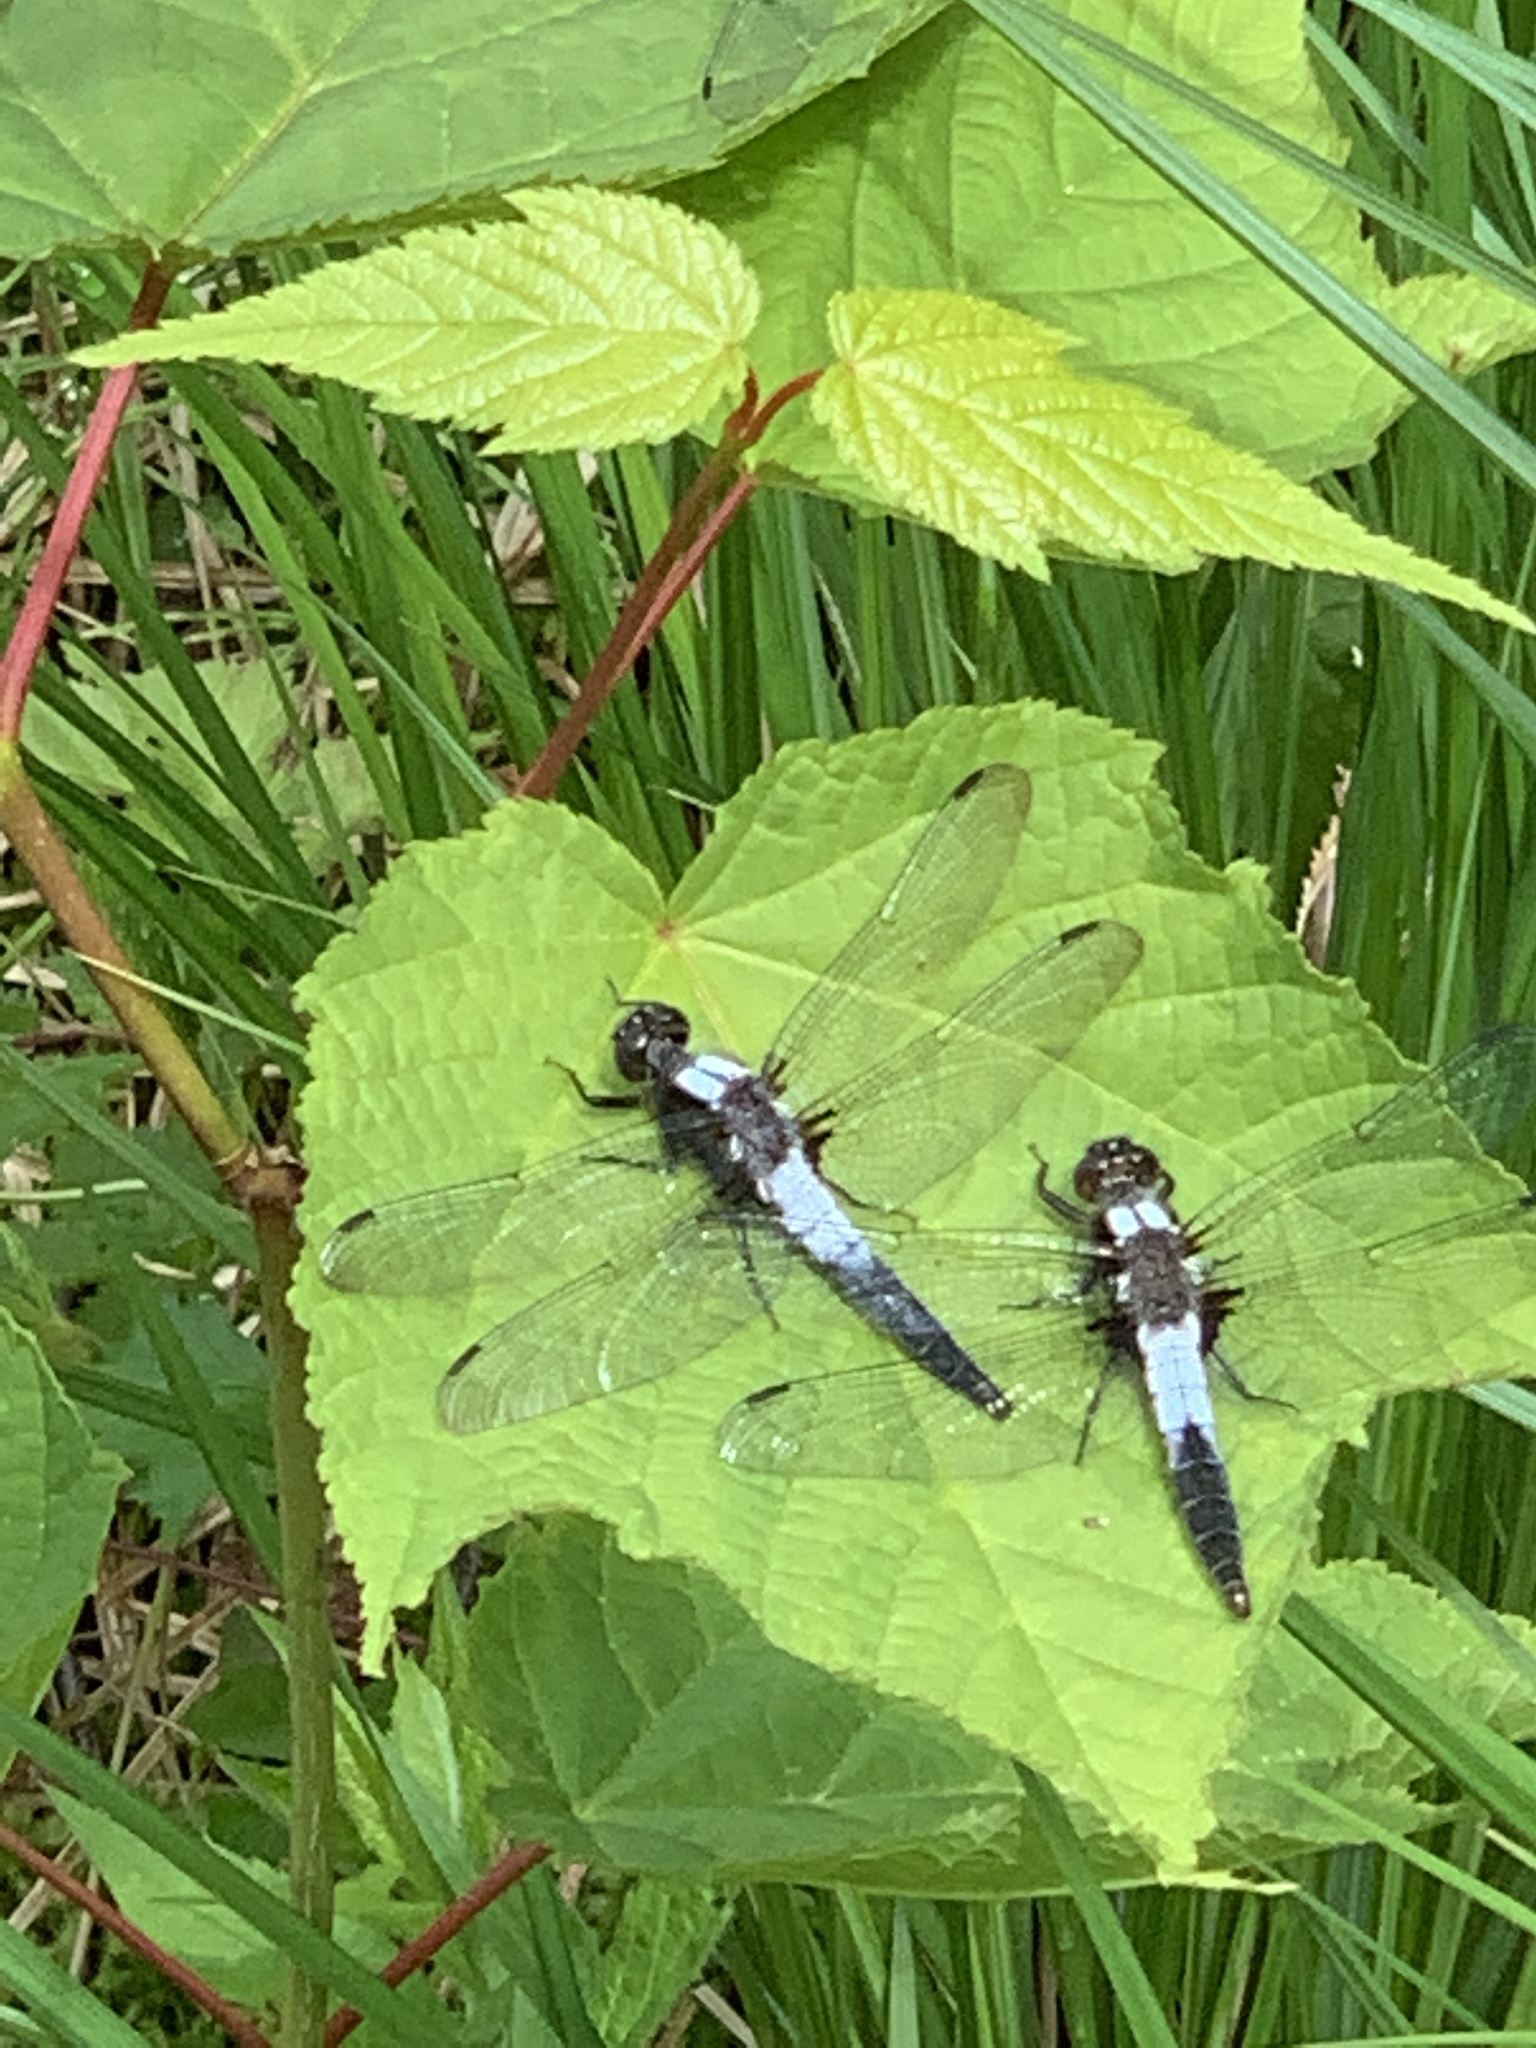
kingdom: Animalia
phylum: Arthropoda
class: Insecta
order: Odonata
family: Libellulidae
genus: Ladona
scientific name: Ladona julia
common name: Chalk-fronted corporal
